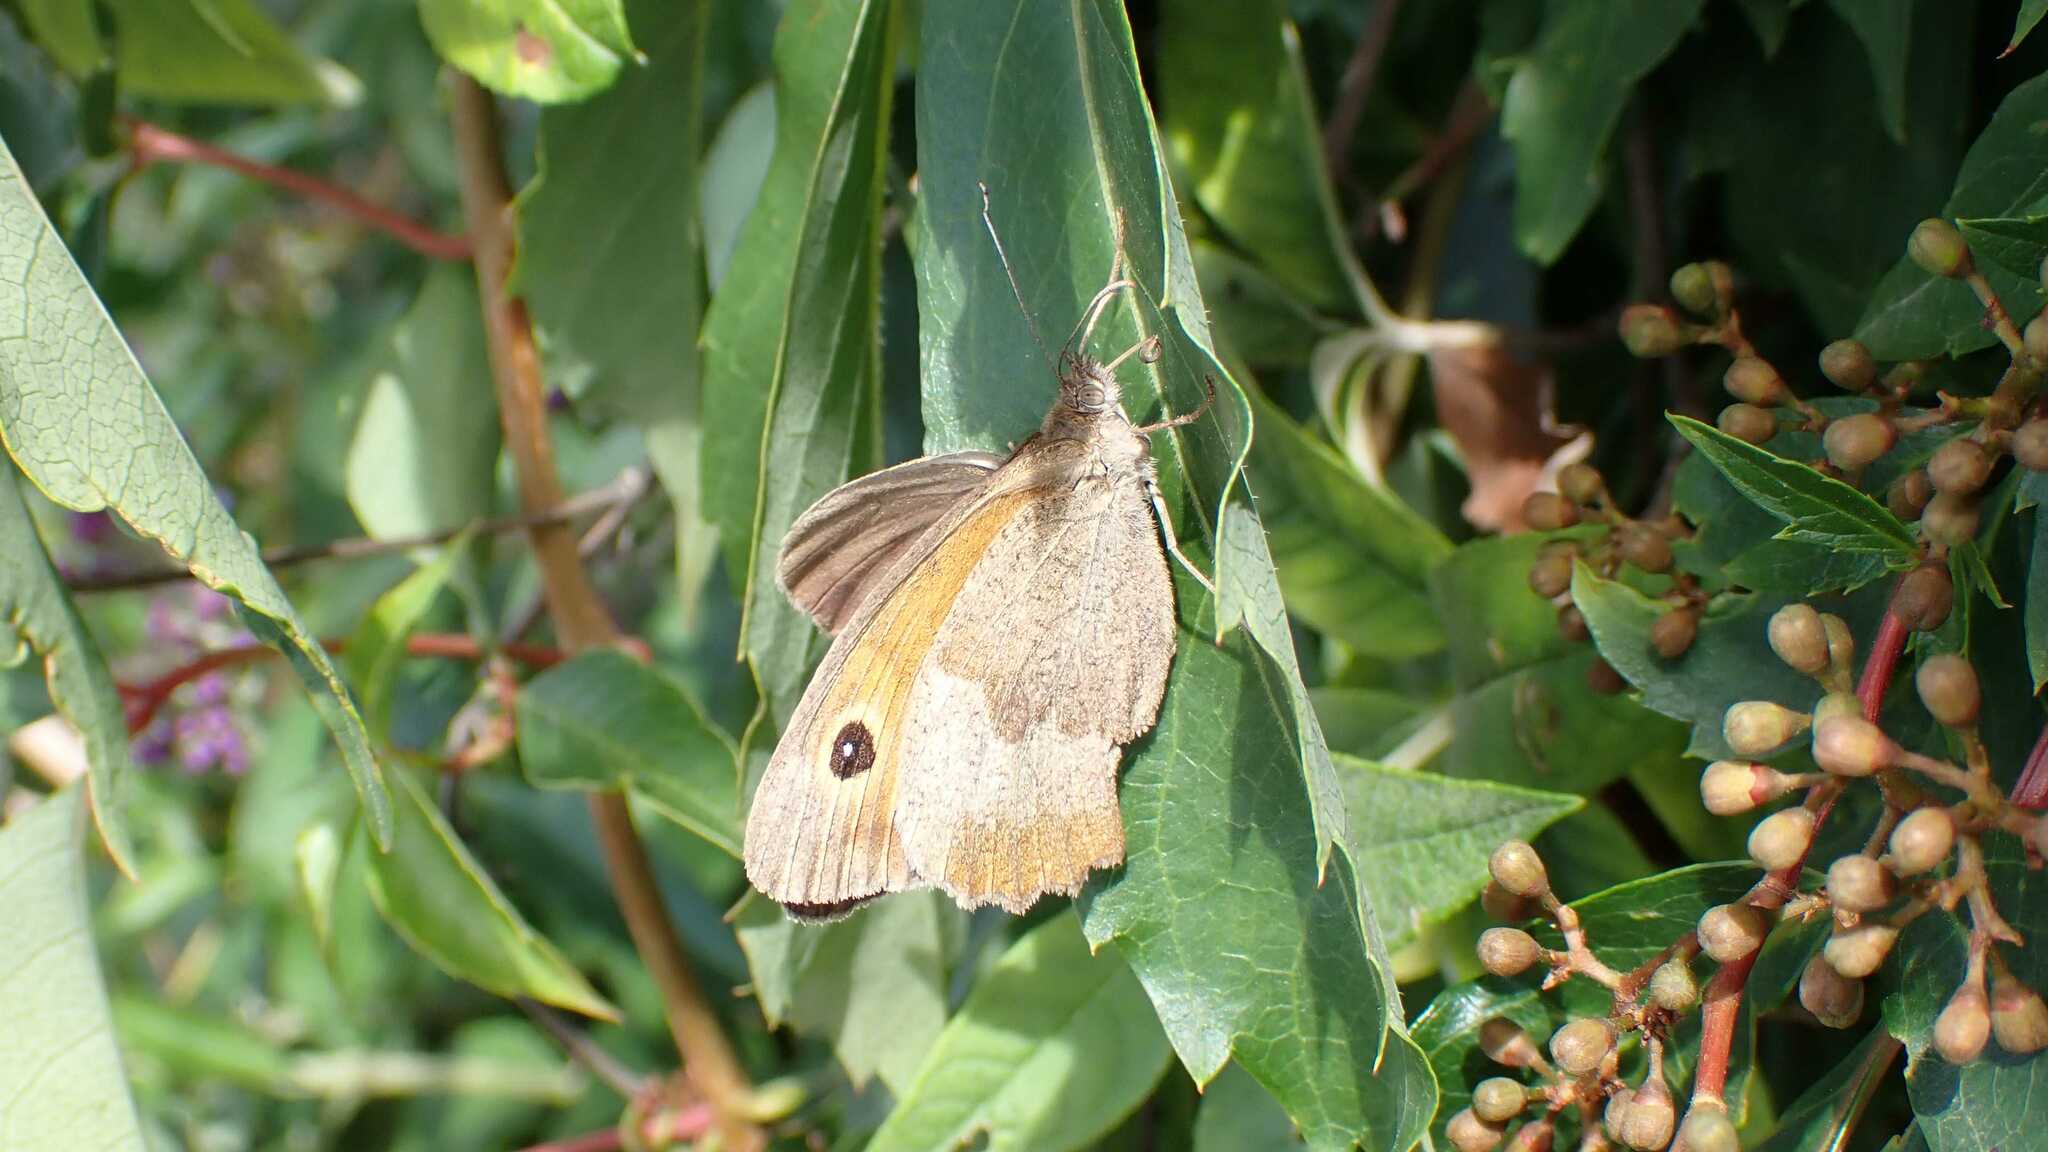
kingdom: Animalia
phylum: Arthropoda
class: Insecta
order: Lepidoptera
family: Nymphalidae
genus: Maniola
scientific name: Maniola jurtina
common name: Meadow brown
